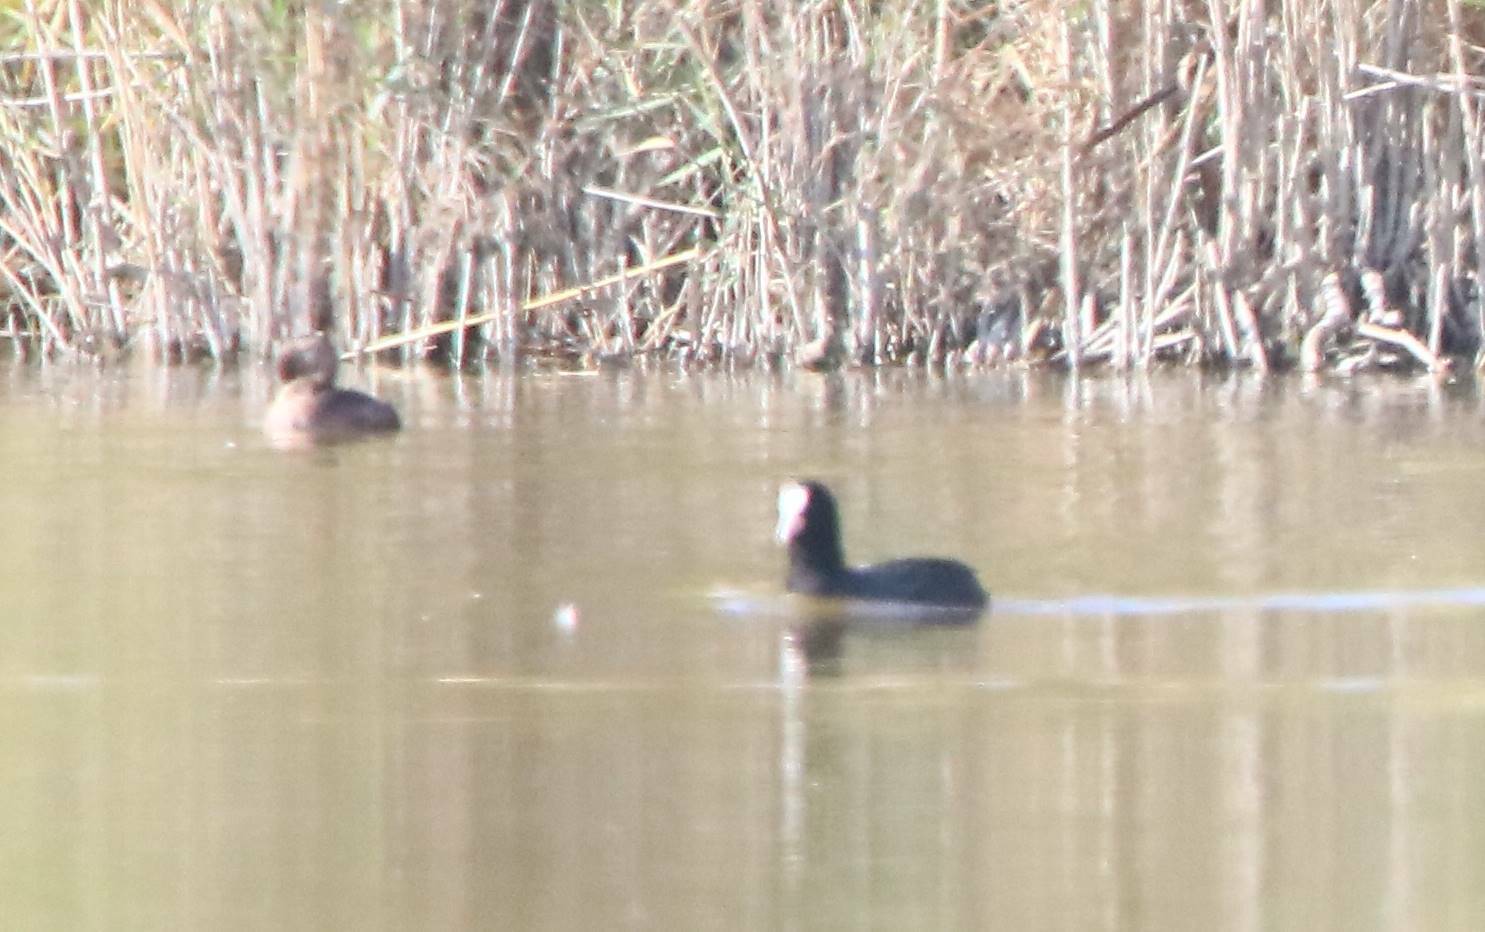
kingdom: Animalia
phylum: Chordata
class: Aves
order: Gruiformes
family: Rallidae
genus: Fulica
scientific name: Fulica atra
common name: Eurasian coot
